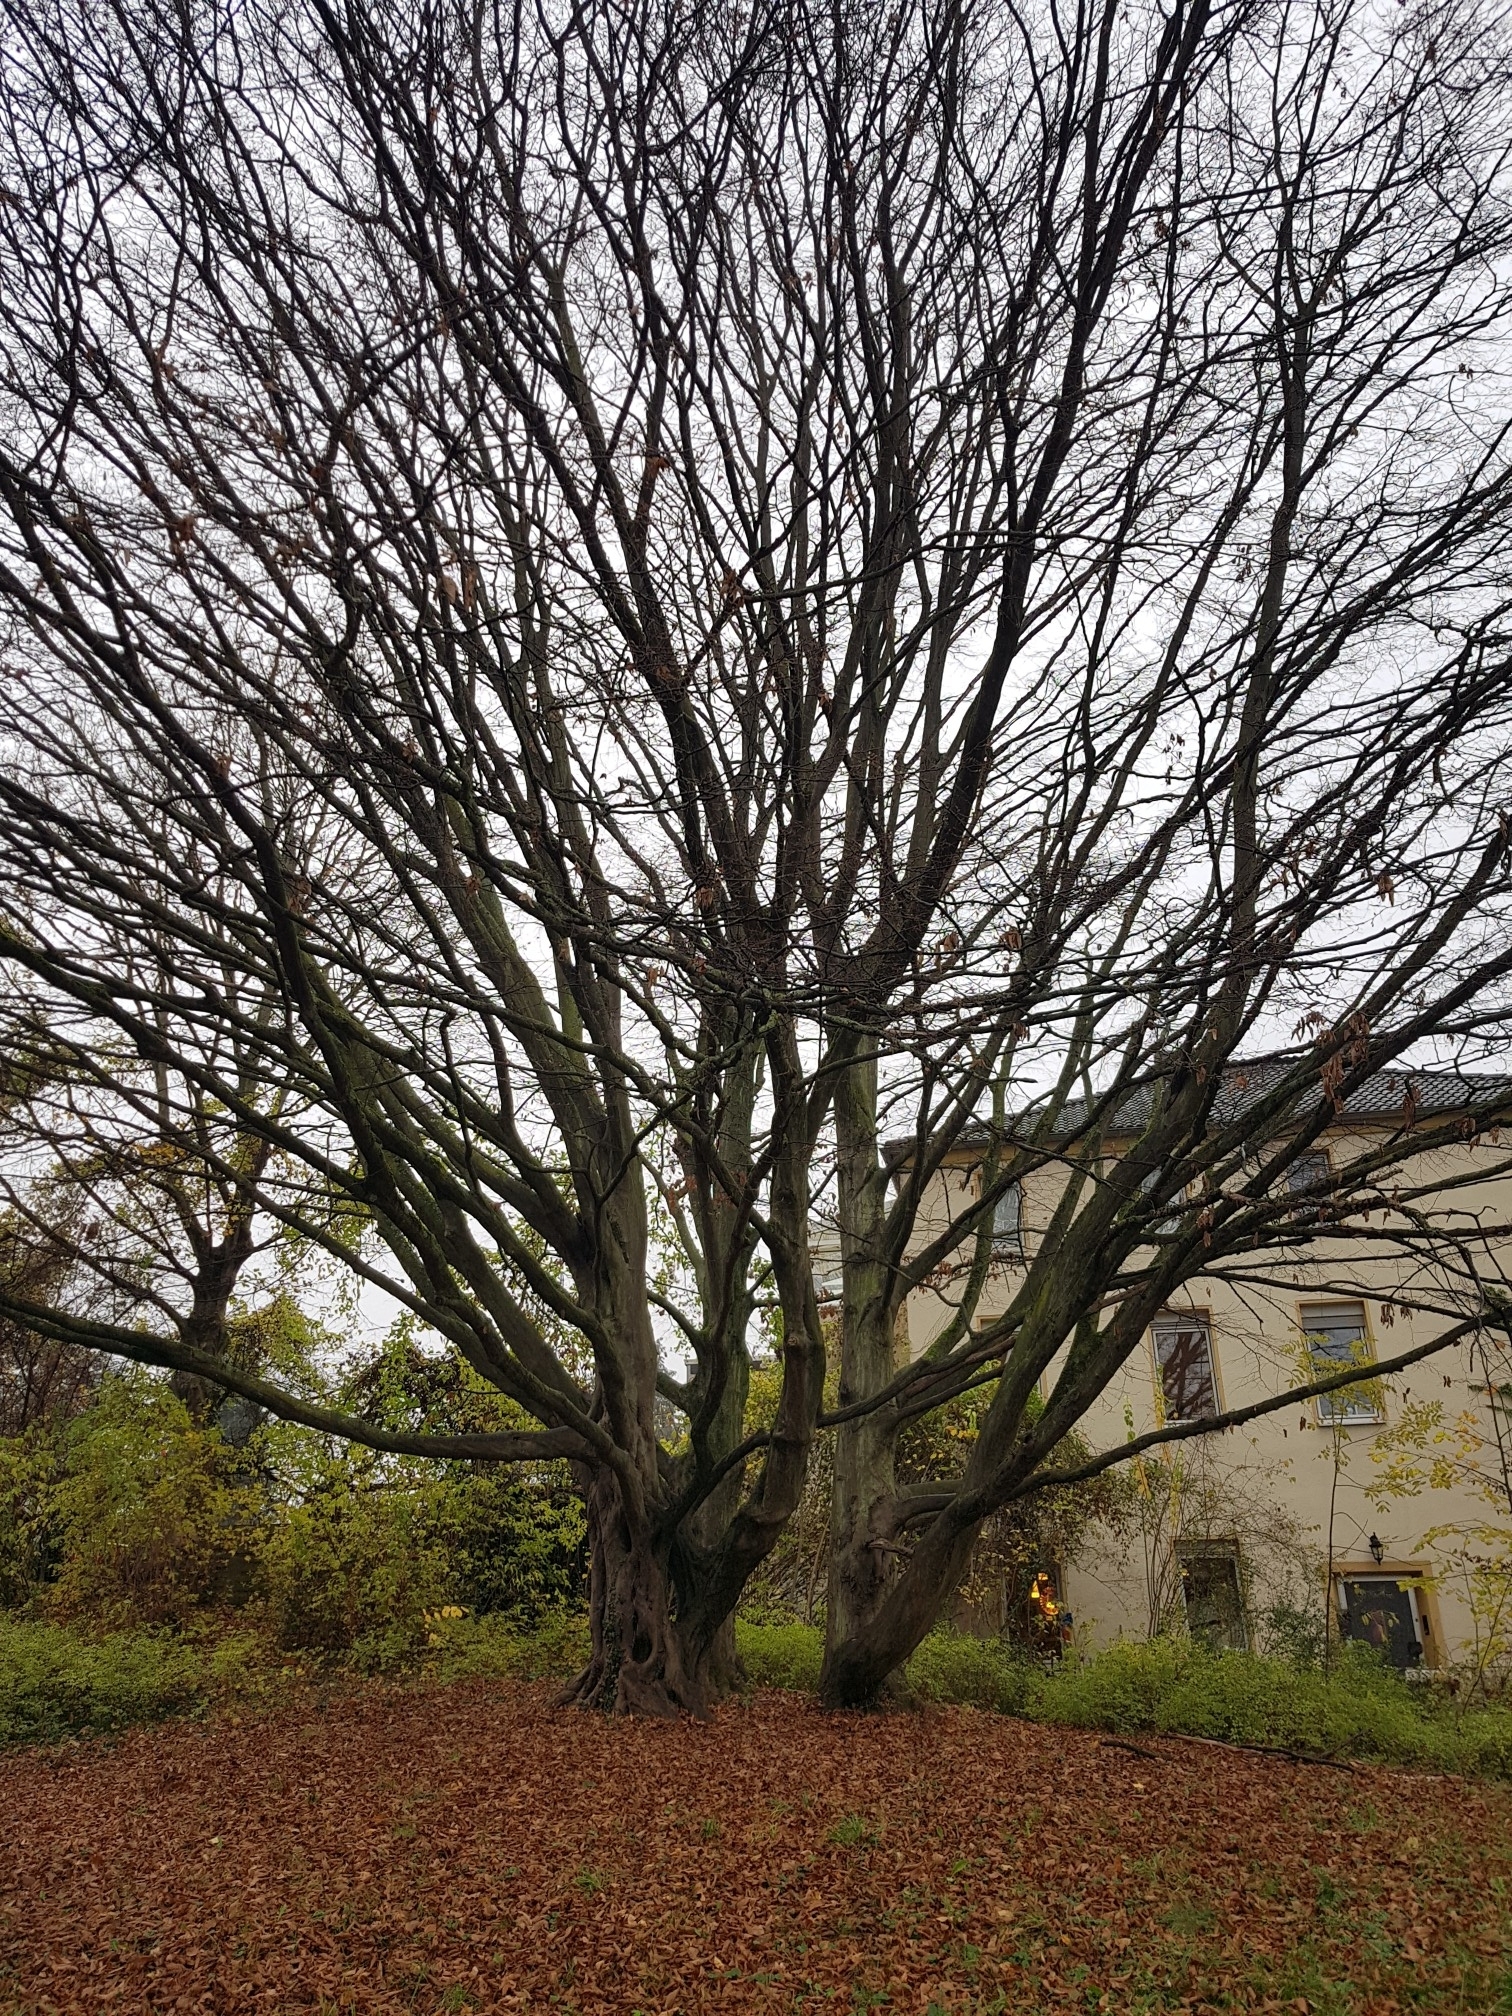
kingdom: Plantae
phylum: Tracheophyta
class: Magnoliopsida
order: Fagales
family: Betulaceae
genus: Carpinus
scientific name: Carpinus betulus
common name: Hornbeam
